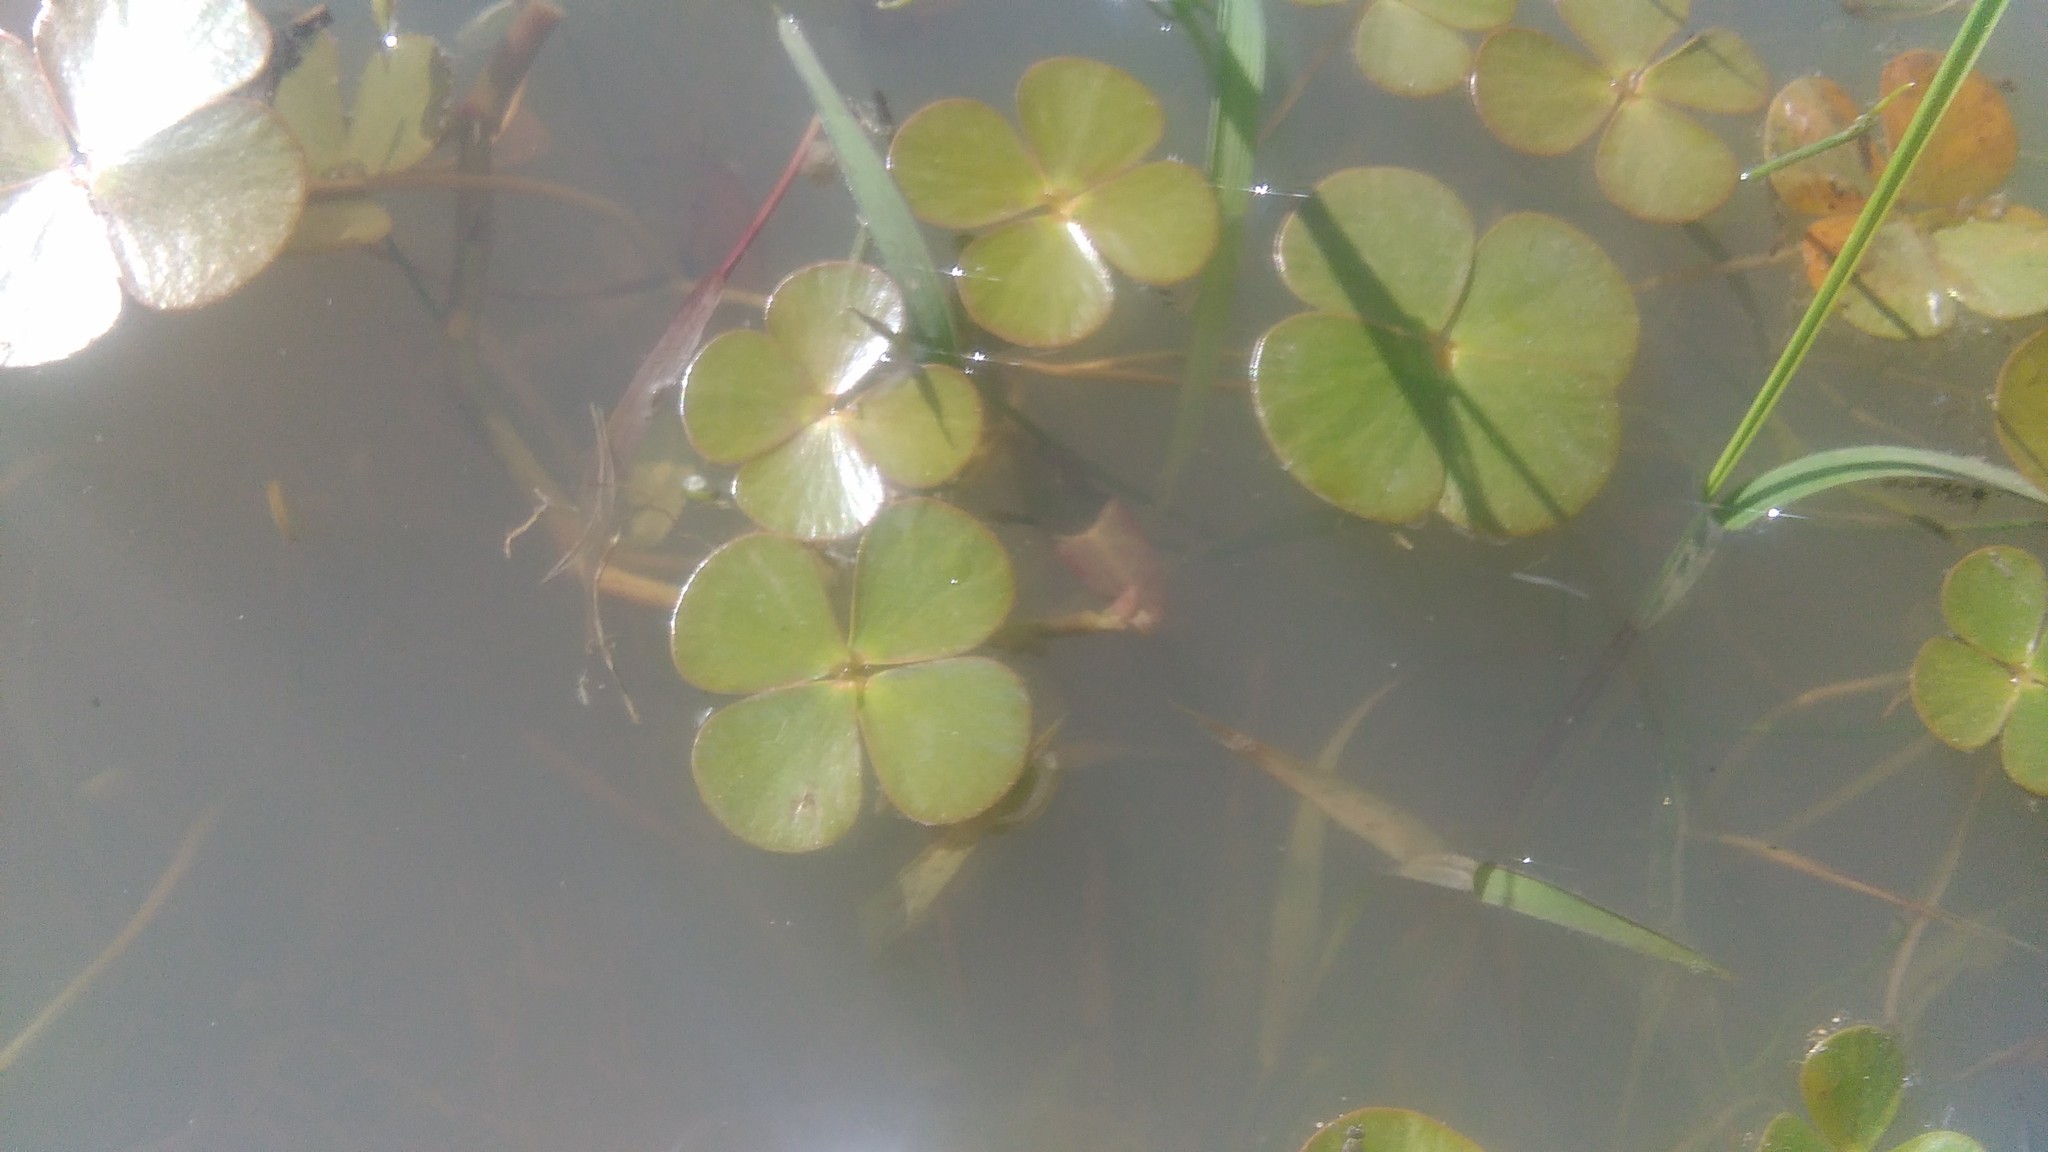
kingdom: Plantae
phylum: Tracheophyta
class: Polypodiopsida
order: Salviniales
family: Marsileaceae
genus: Marsilea
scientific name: Marsilea ancylopoda
